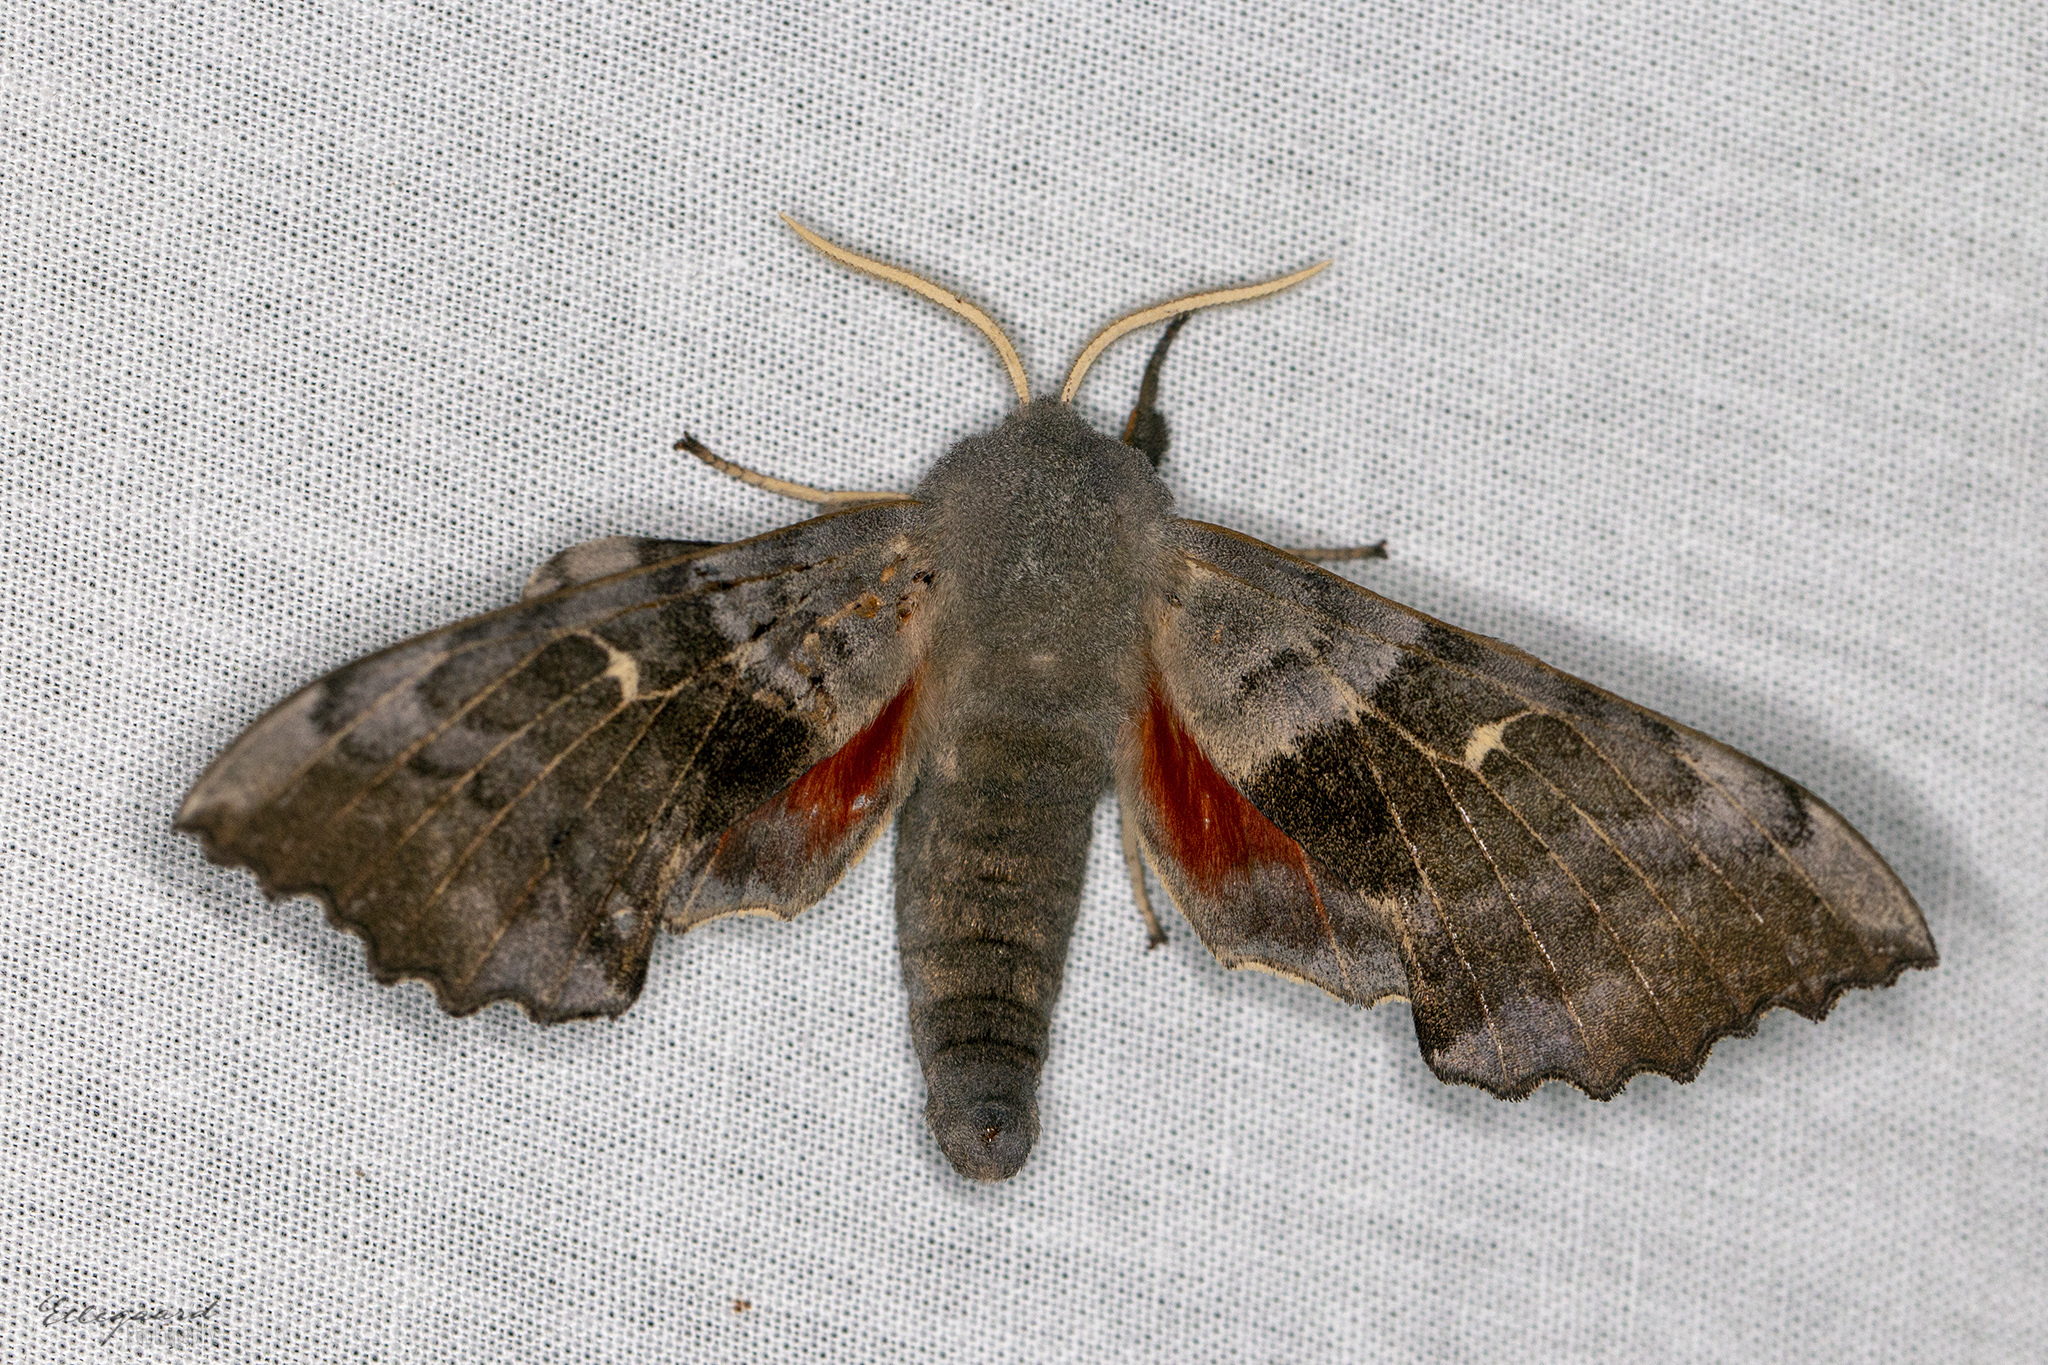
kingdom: Animalia
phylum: Arthropoda
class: Insecta
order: Lepidoptera
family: Sphingidae
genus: Laothoe
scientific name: Laothoe populi
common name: Poplar hawk-moth
